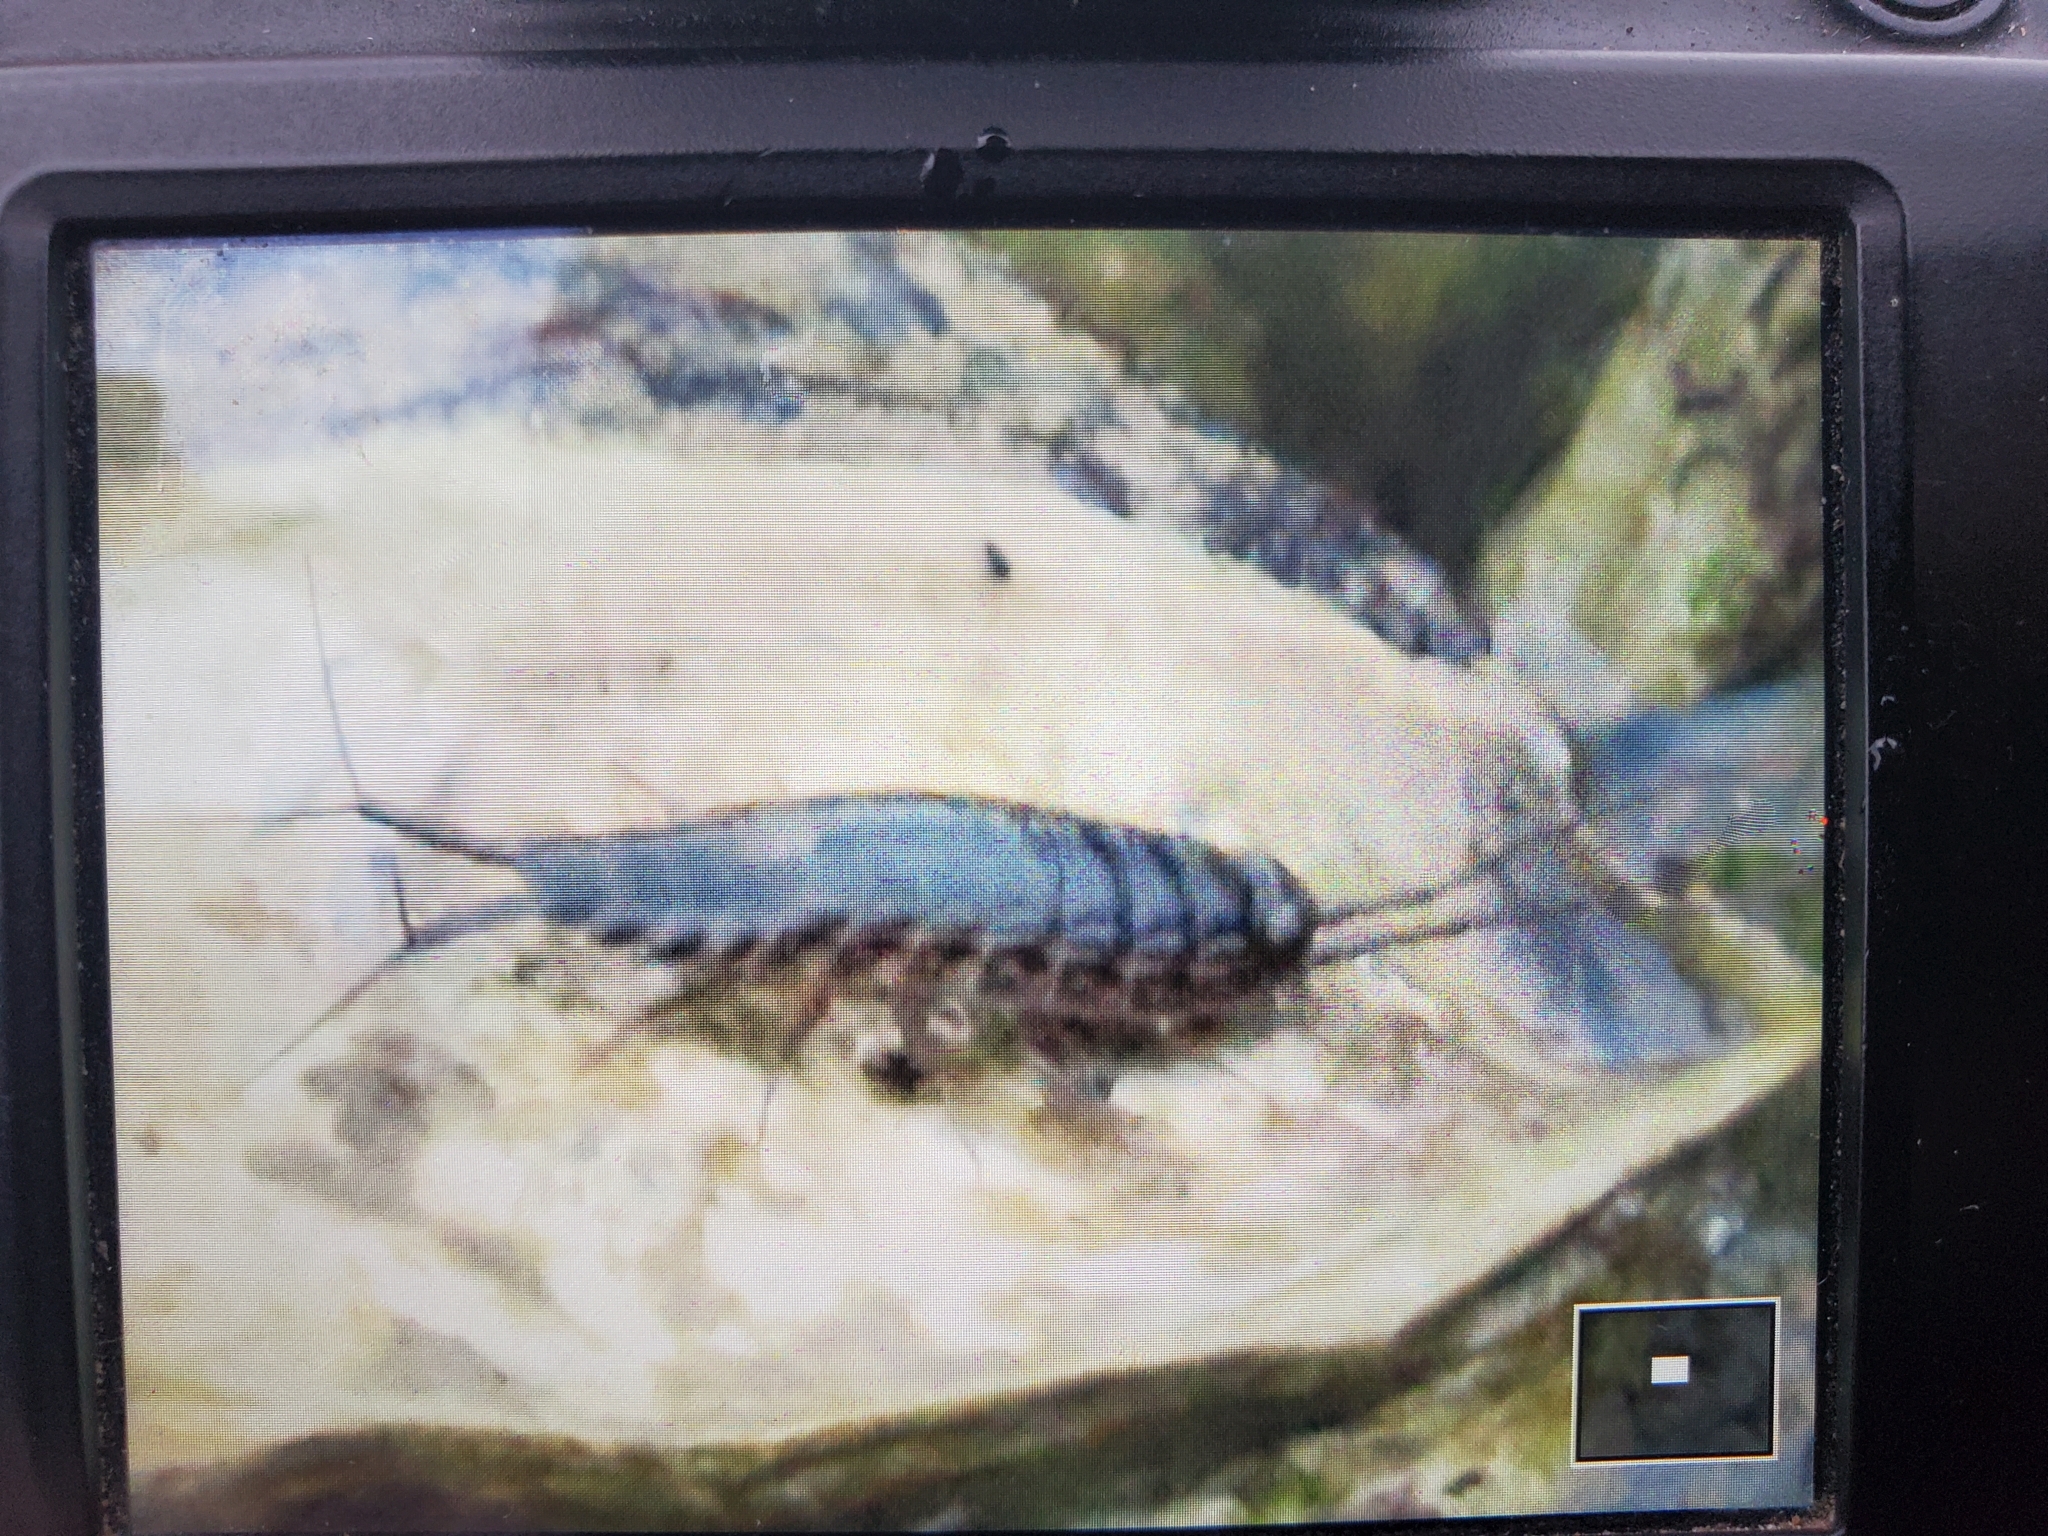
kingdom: Animalia
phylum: Arthropoda
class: Malacostraca
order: Isopoda
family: Ligiidae
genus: Ligia
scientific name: Ligia exotica
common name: Wharf roach
